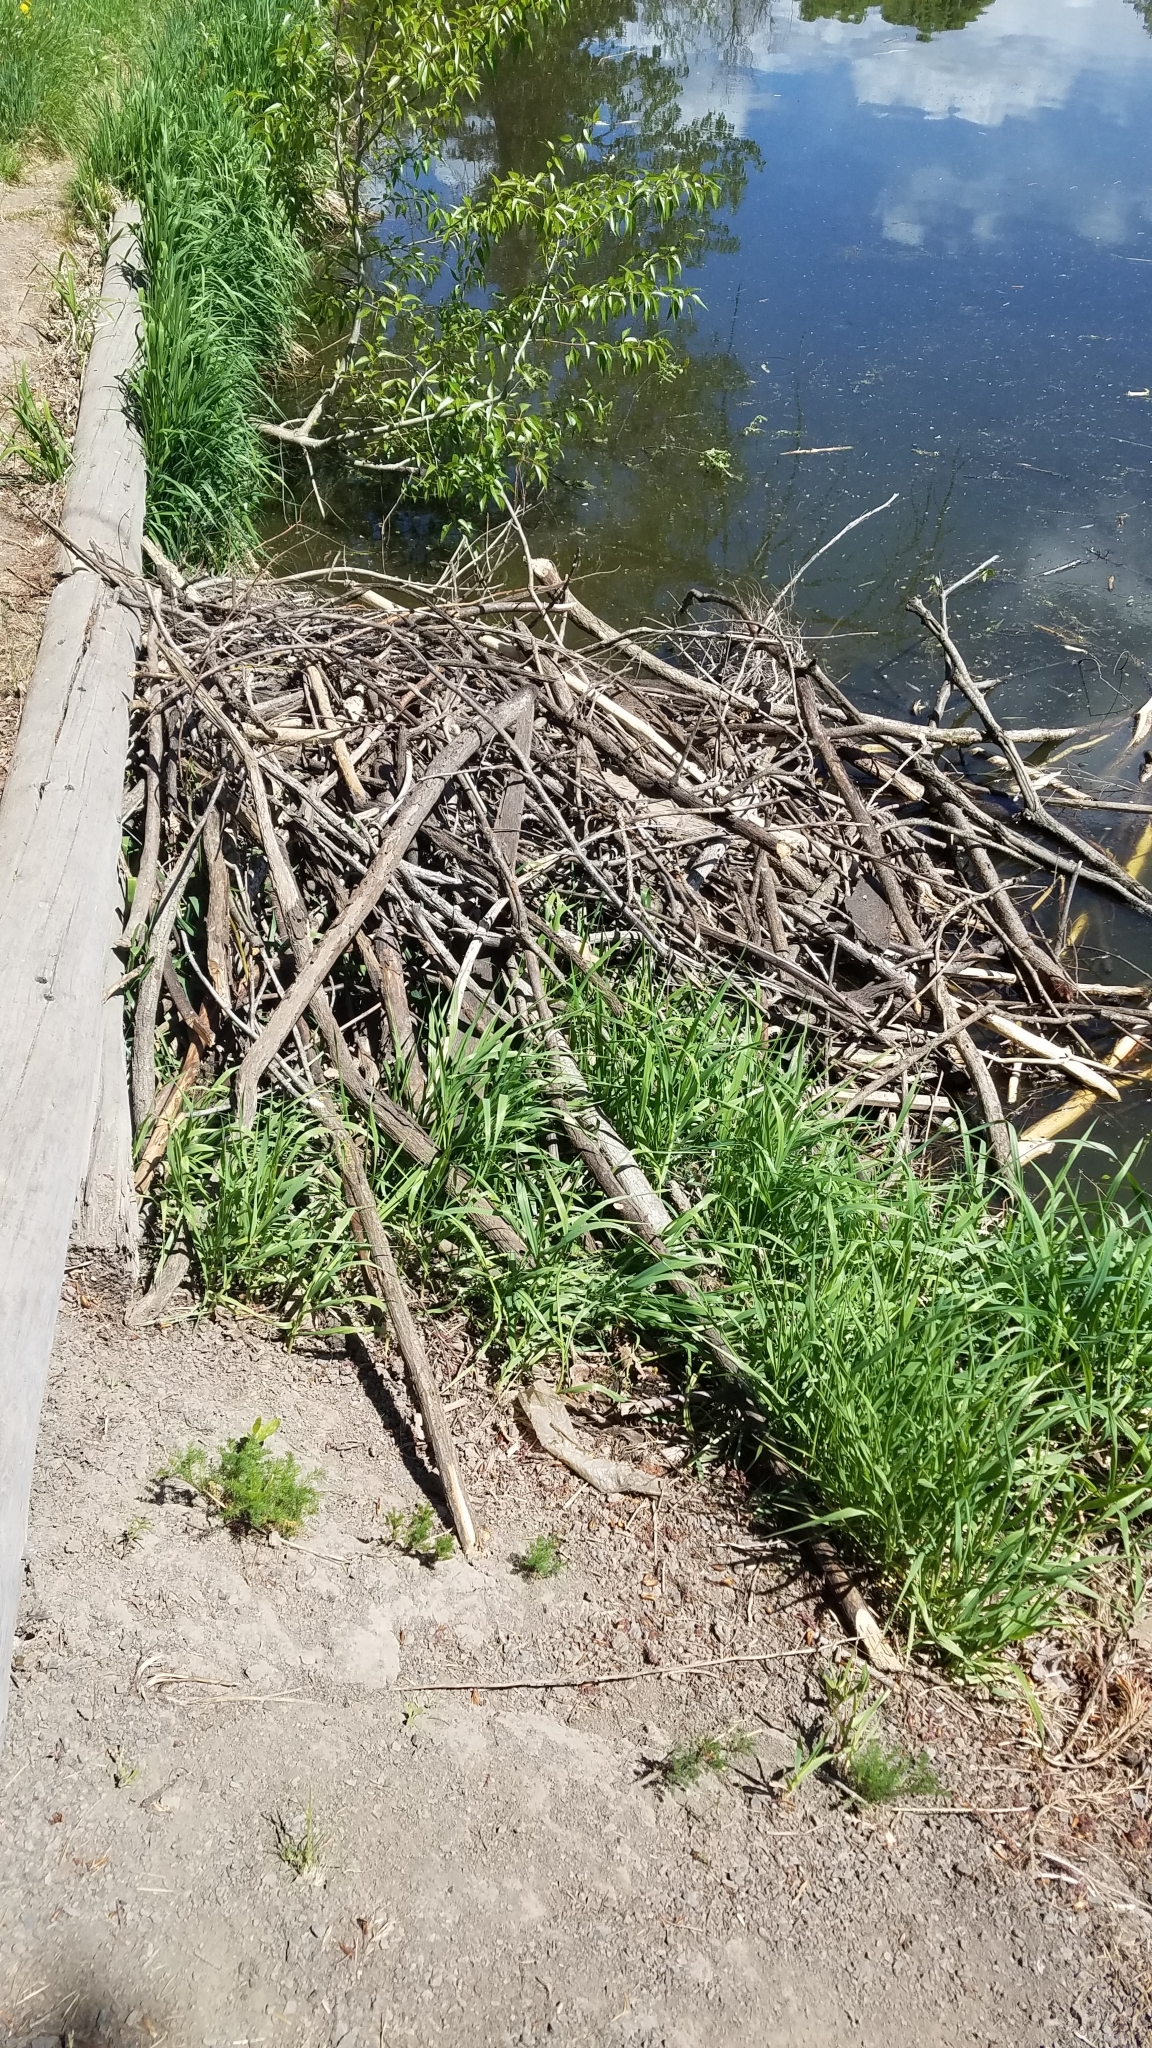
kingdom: Animalia
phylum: Chordata
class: Mammalia
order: Rodentia
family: Castoridae
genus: Castor
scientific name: Castor canadensis
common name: American beaver
